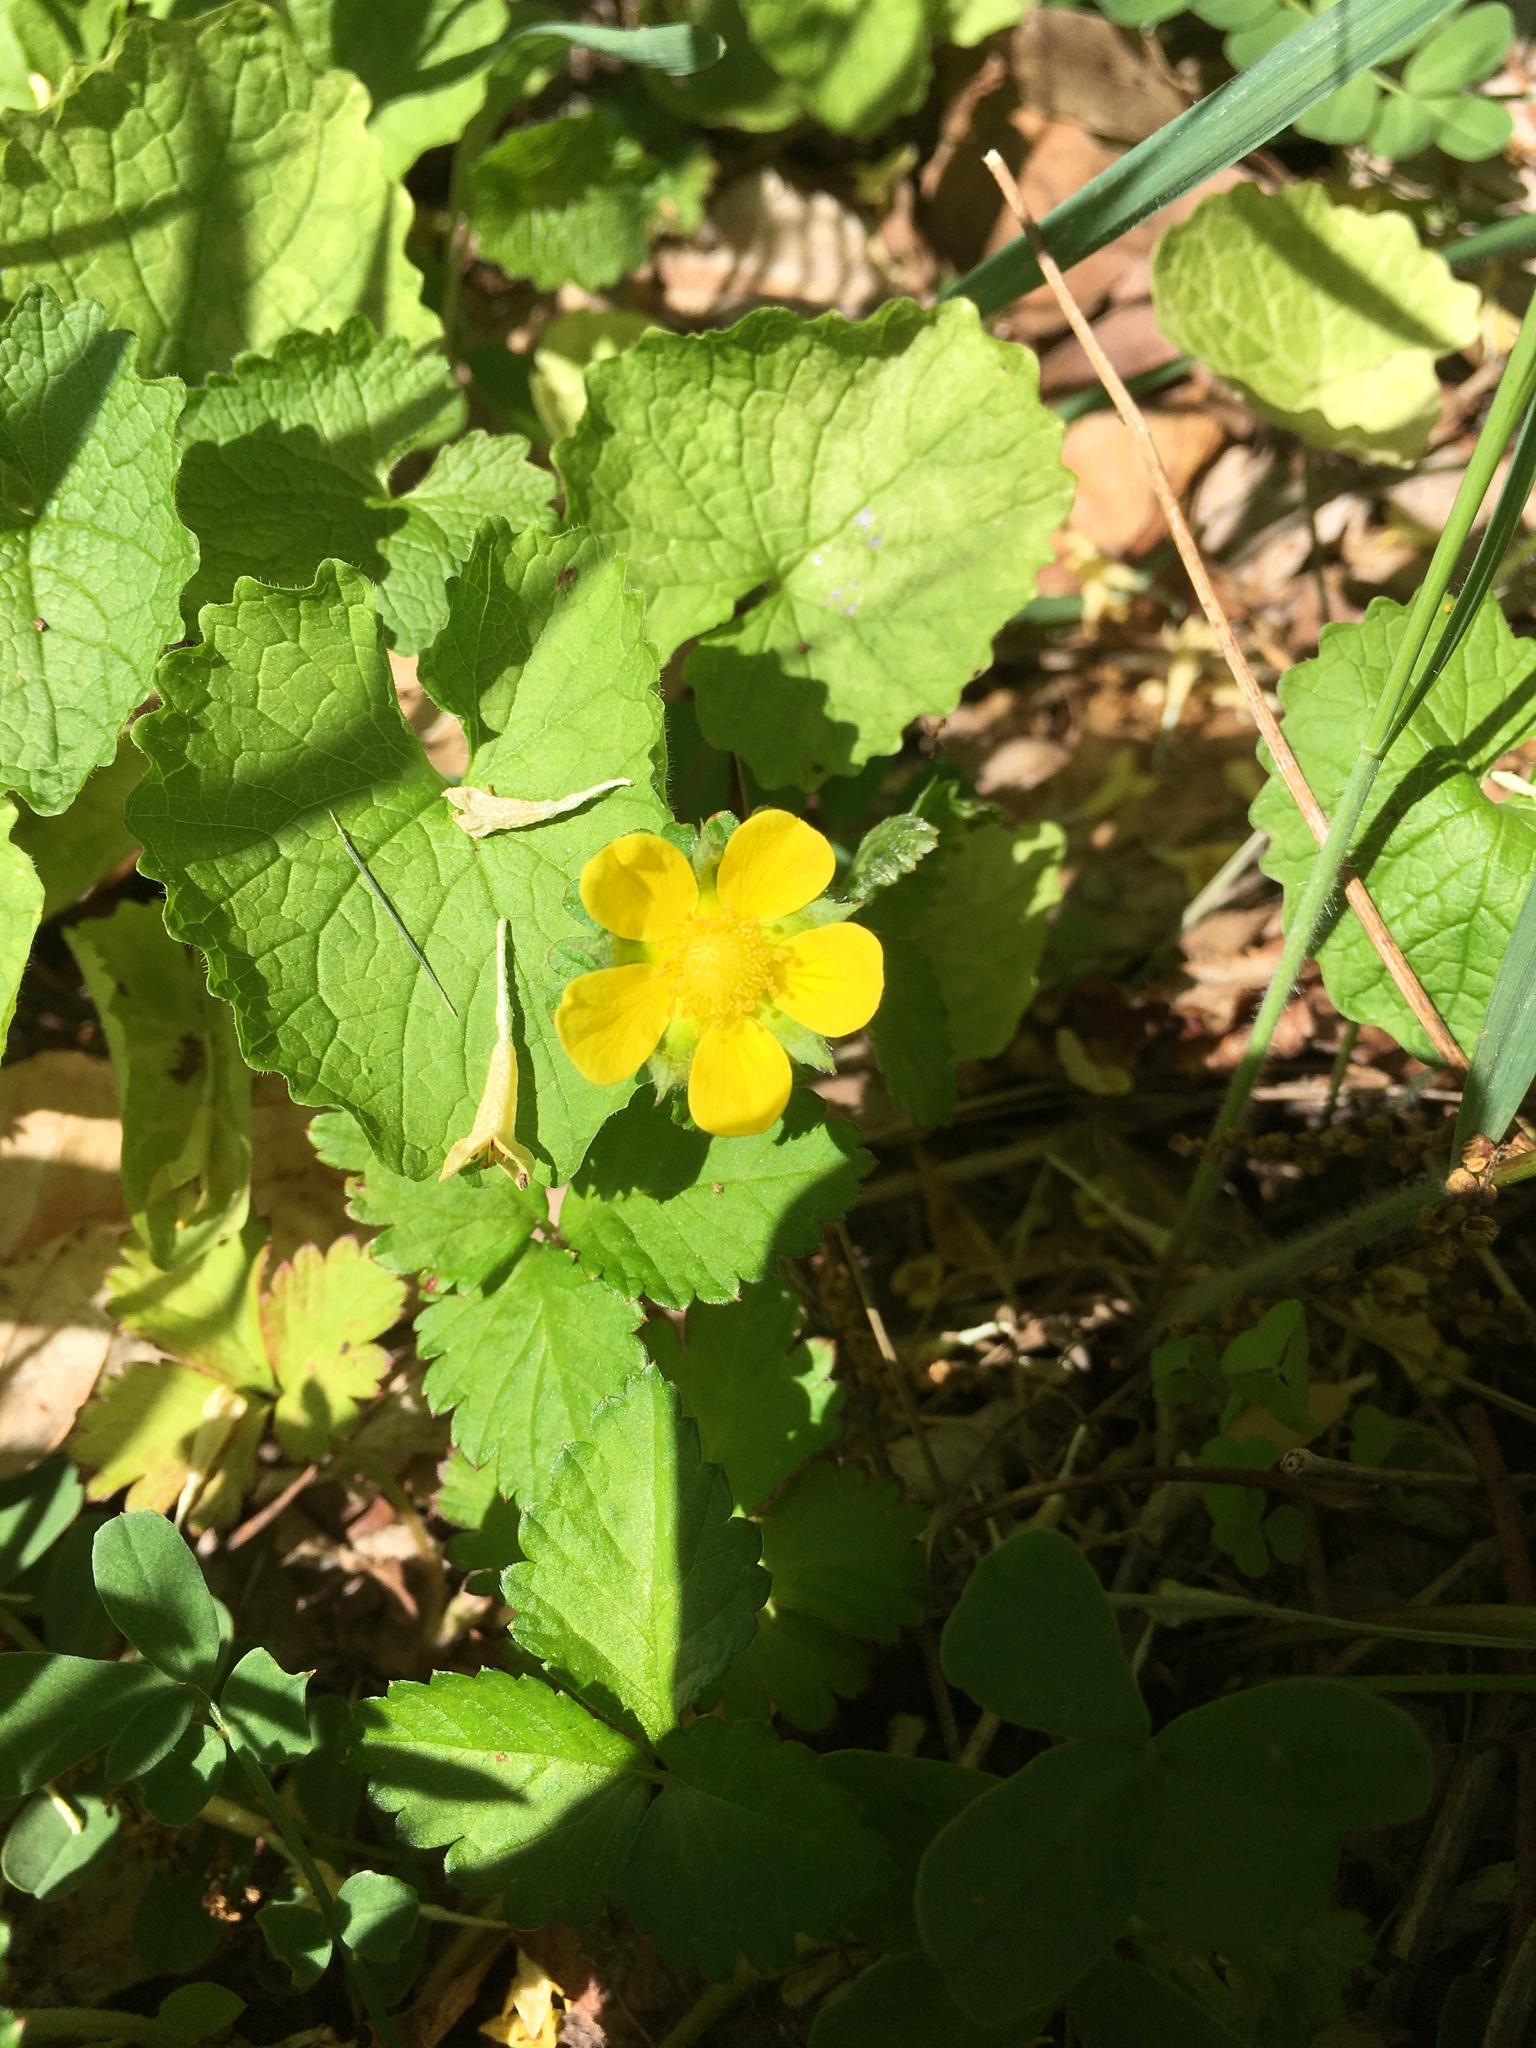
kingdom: Plantae
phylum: Tracheophyta
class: Magnoliopsida
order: Rosales
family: Rosaceae
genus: Potentilla
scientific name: Potentilla indica
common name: Yellow-flowered strawberry
